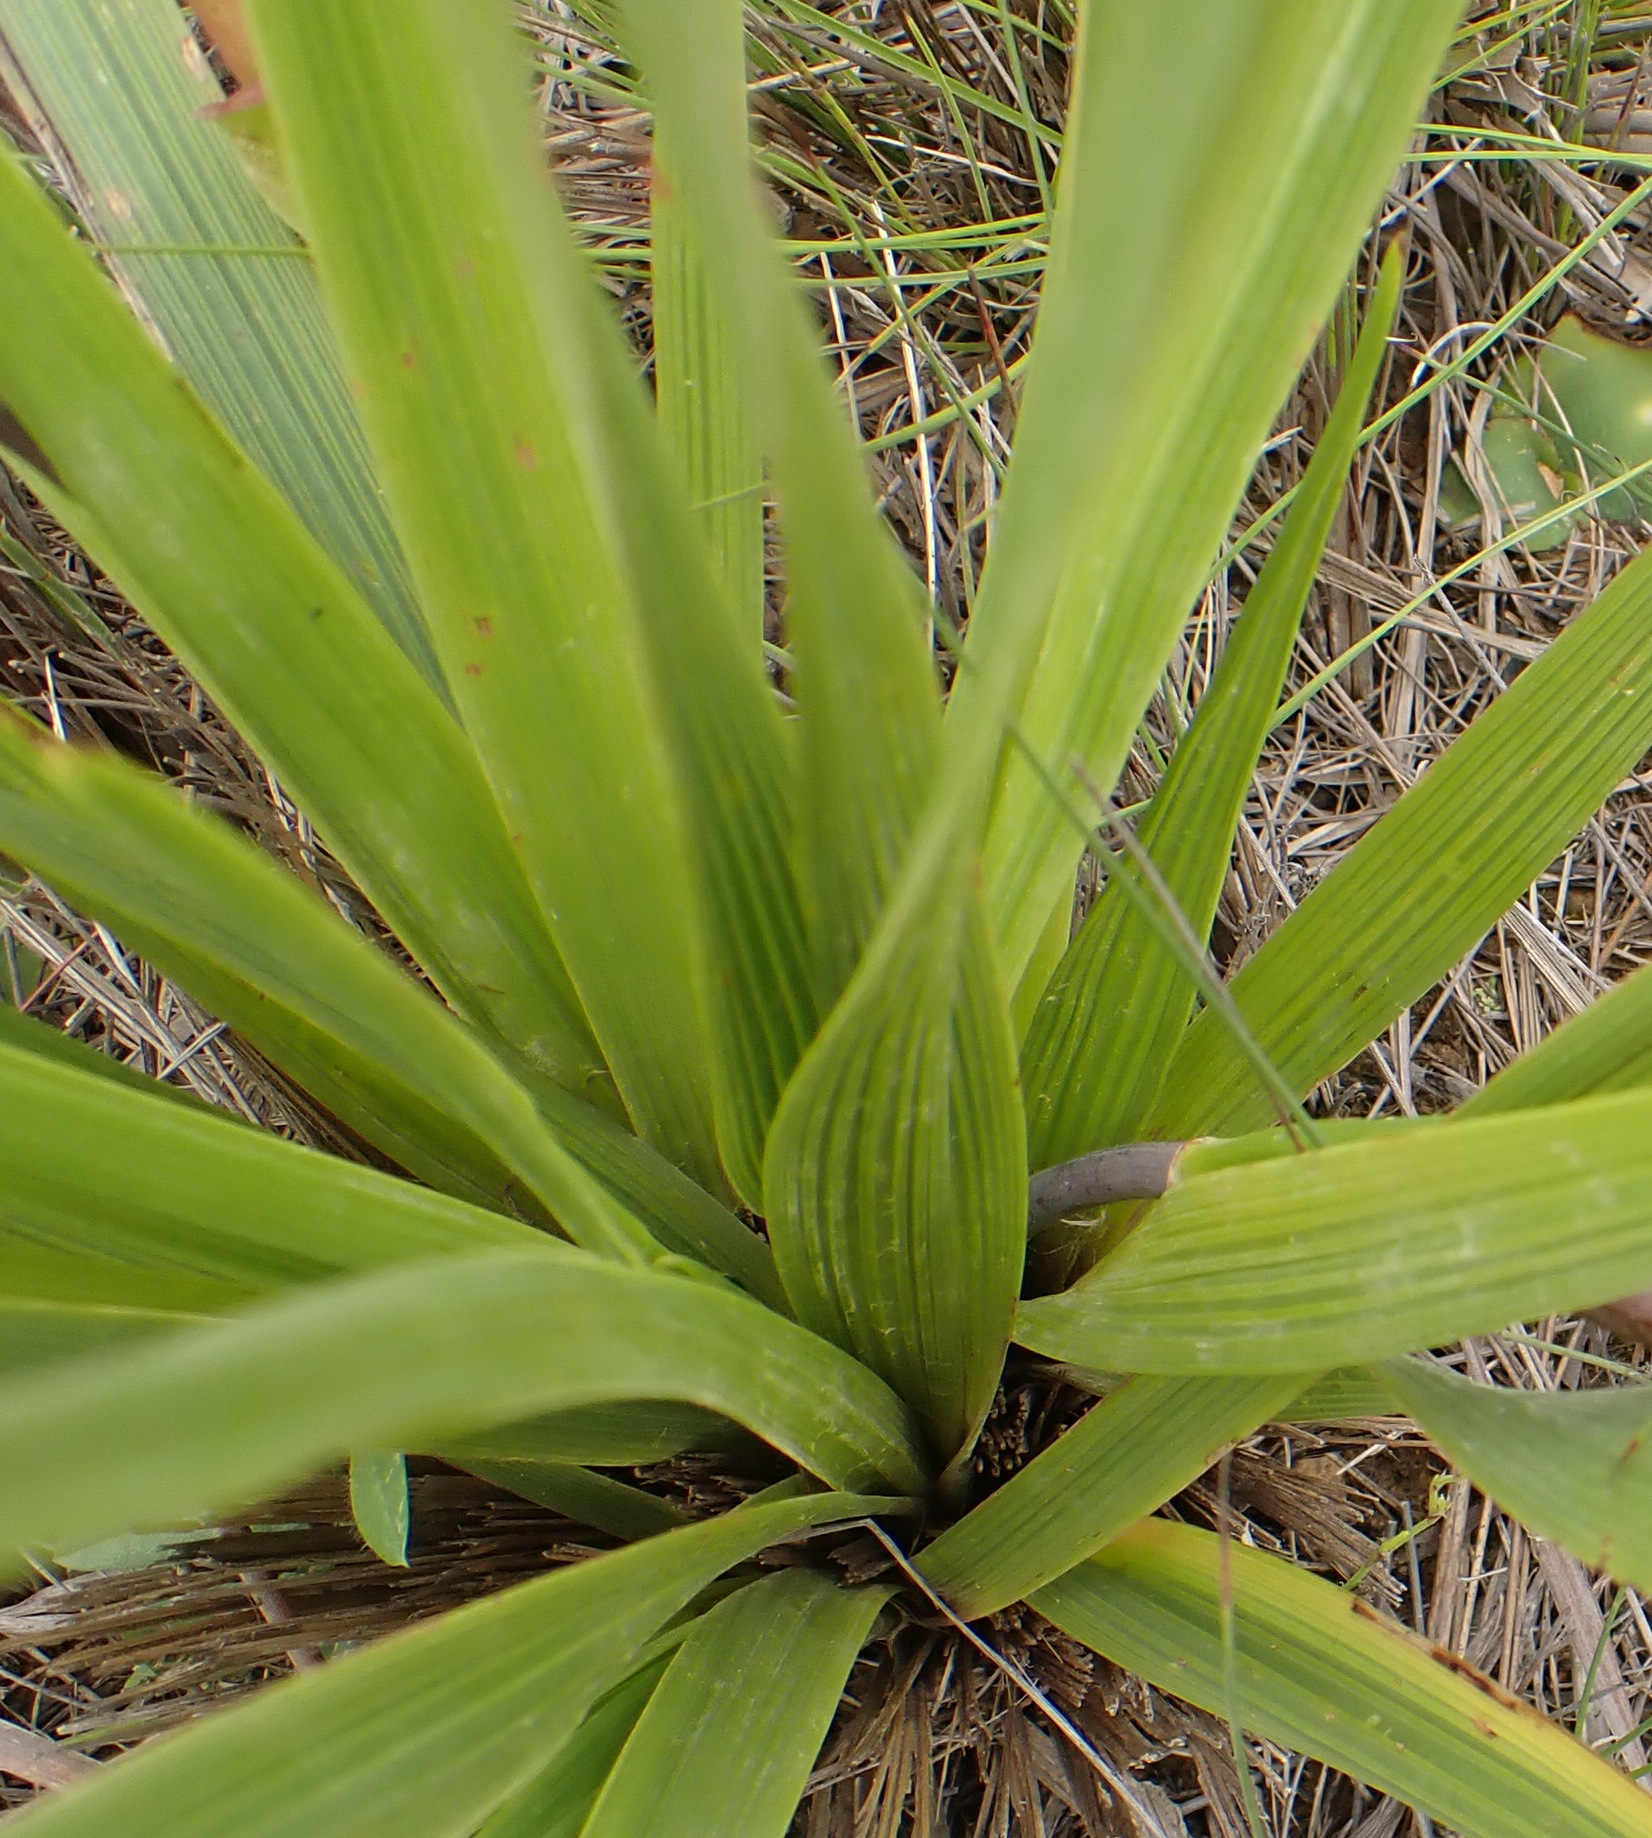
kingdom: Plantae
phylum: Tracheophyta
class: Magnoliopsida
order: Asterales
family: Asteraceae
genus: Corymbium
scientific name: Corymbium glabrum
